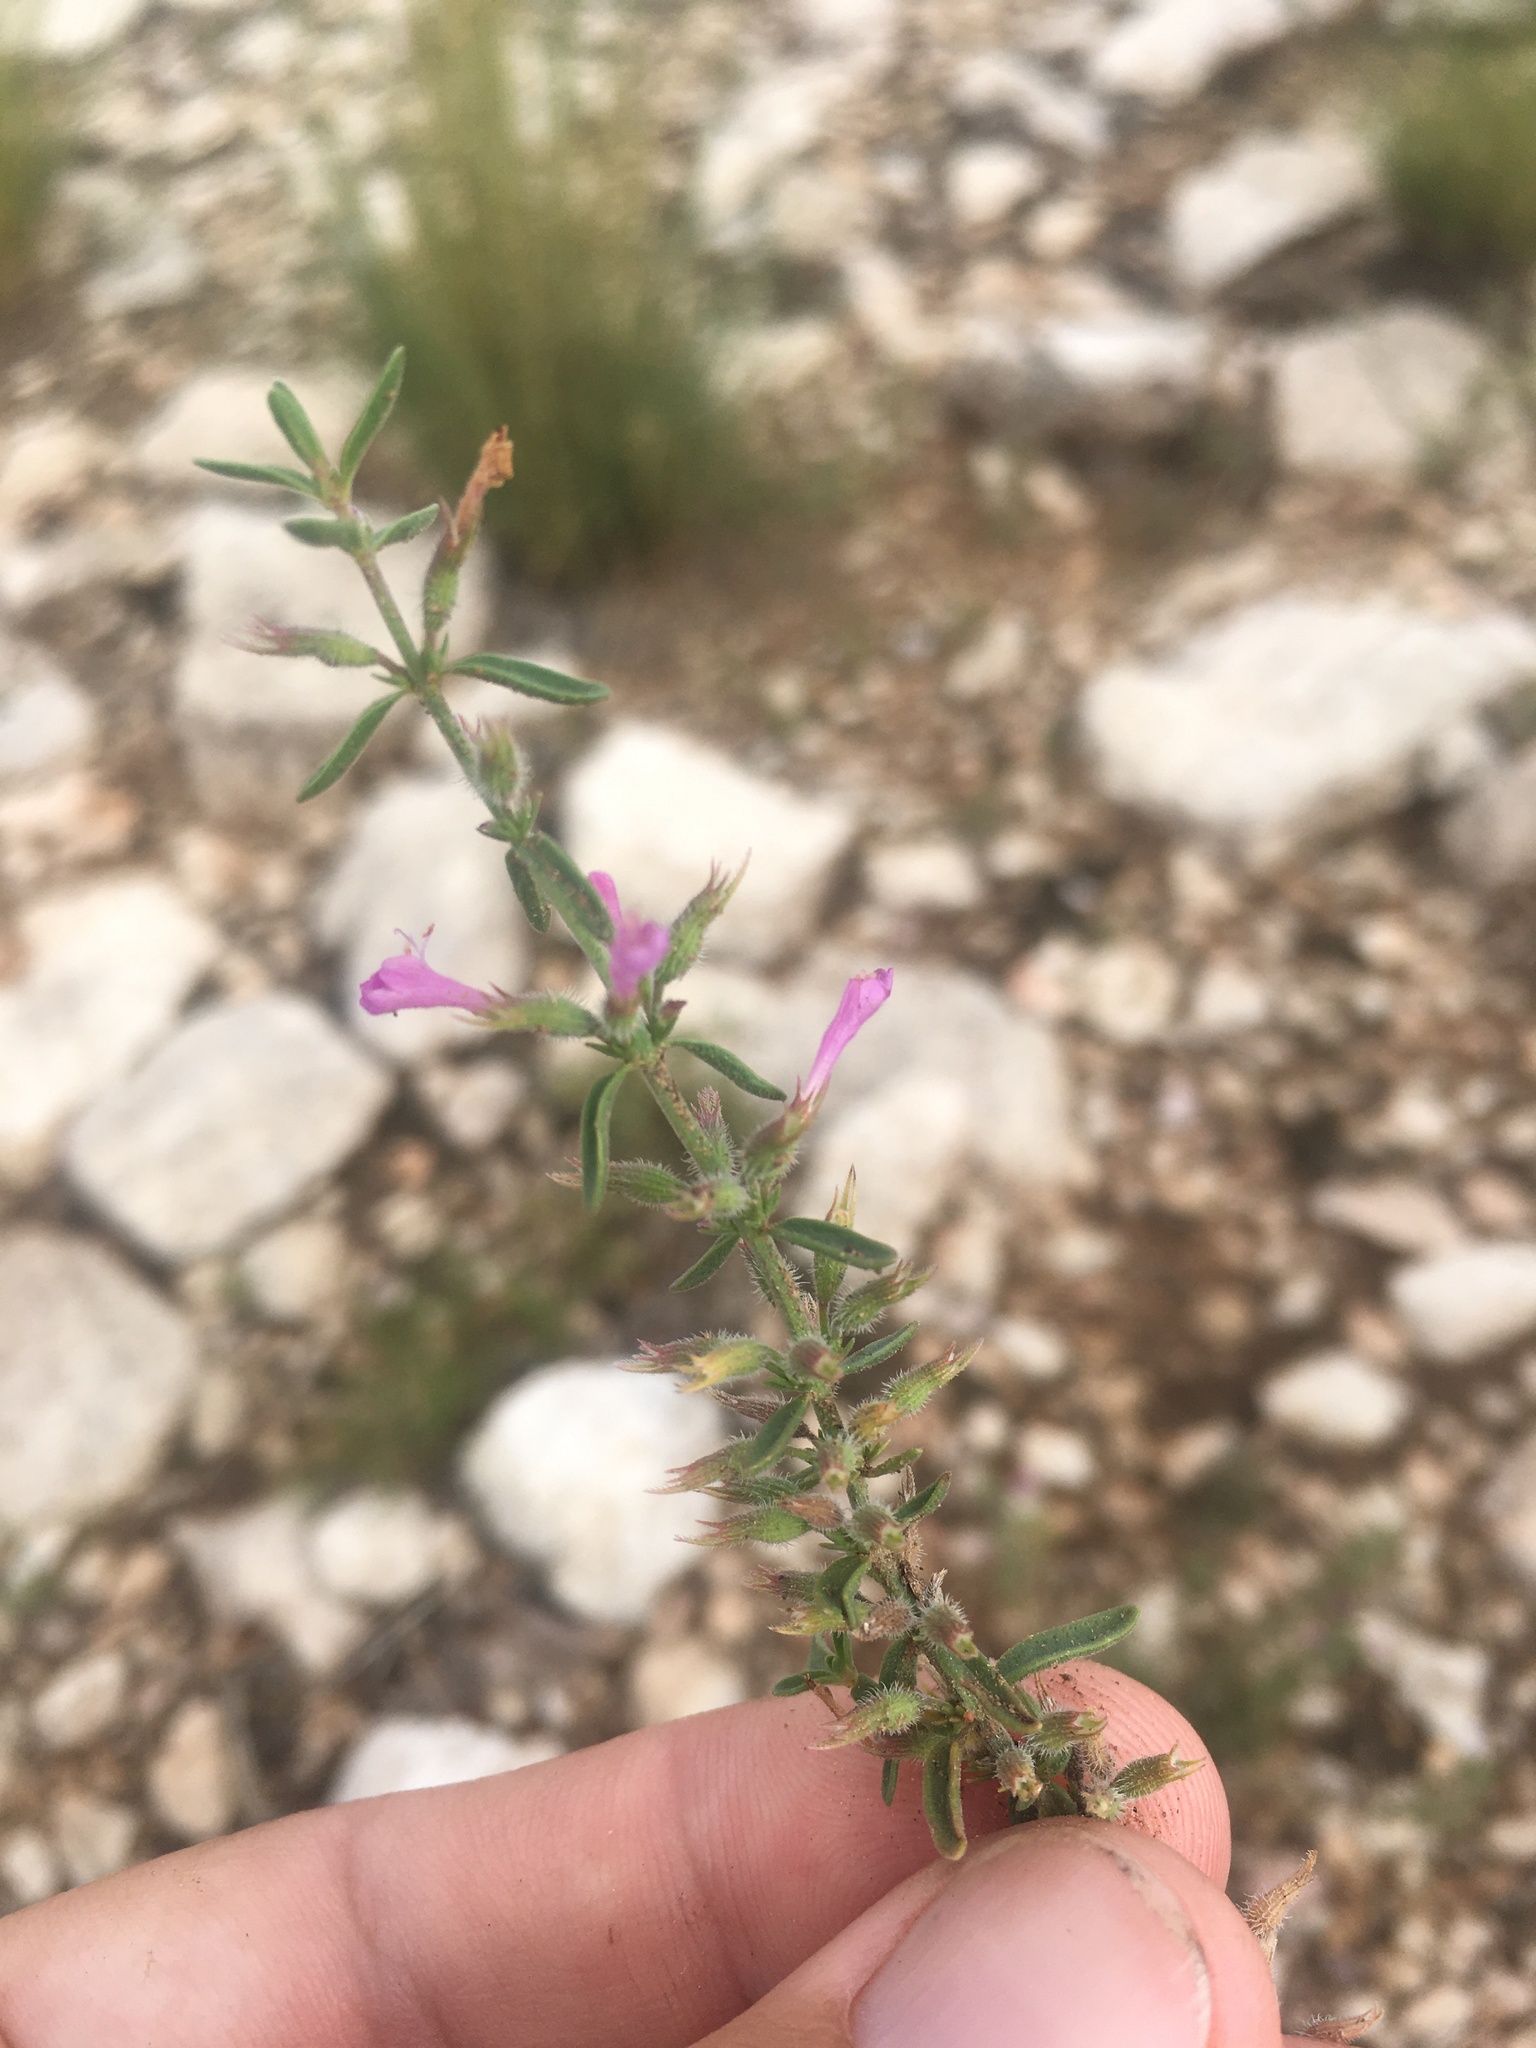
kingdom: Plantae
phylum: Tracheophyta
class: Magnoliopsida
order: Lamiales
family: Lamiaceae
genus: Hedeoma
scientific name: Hedeoma drummondii
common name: New mexico pennyroyal
